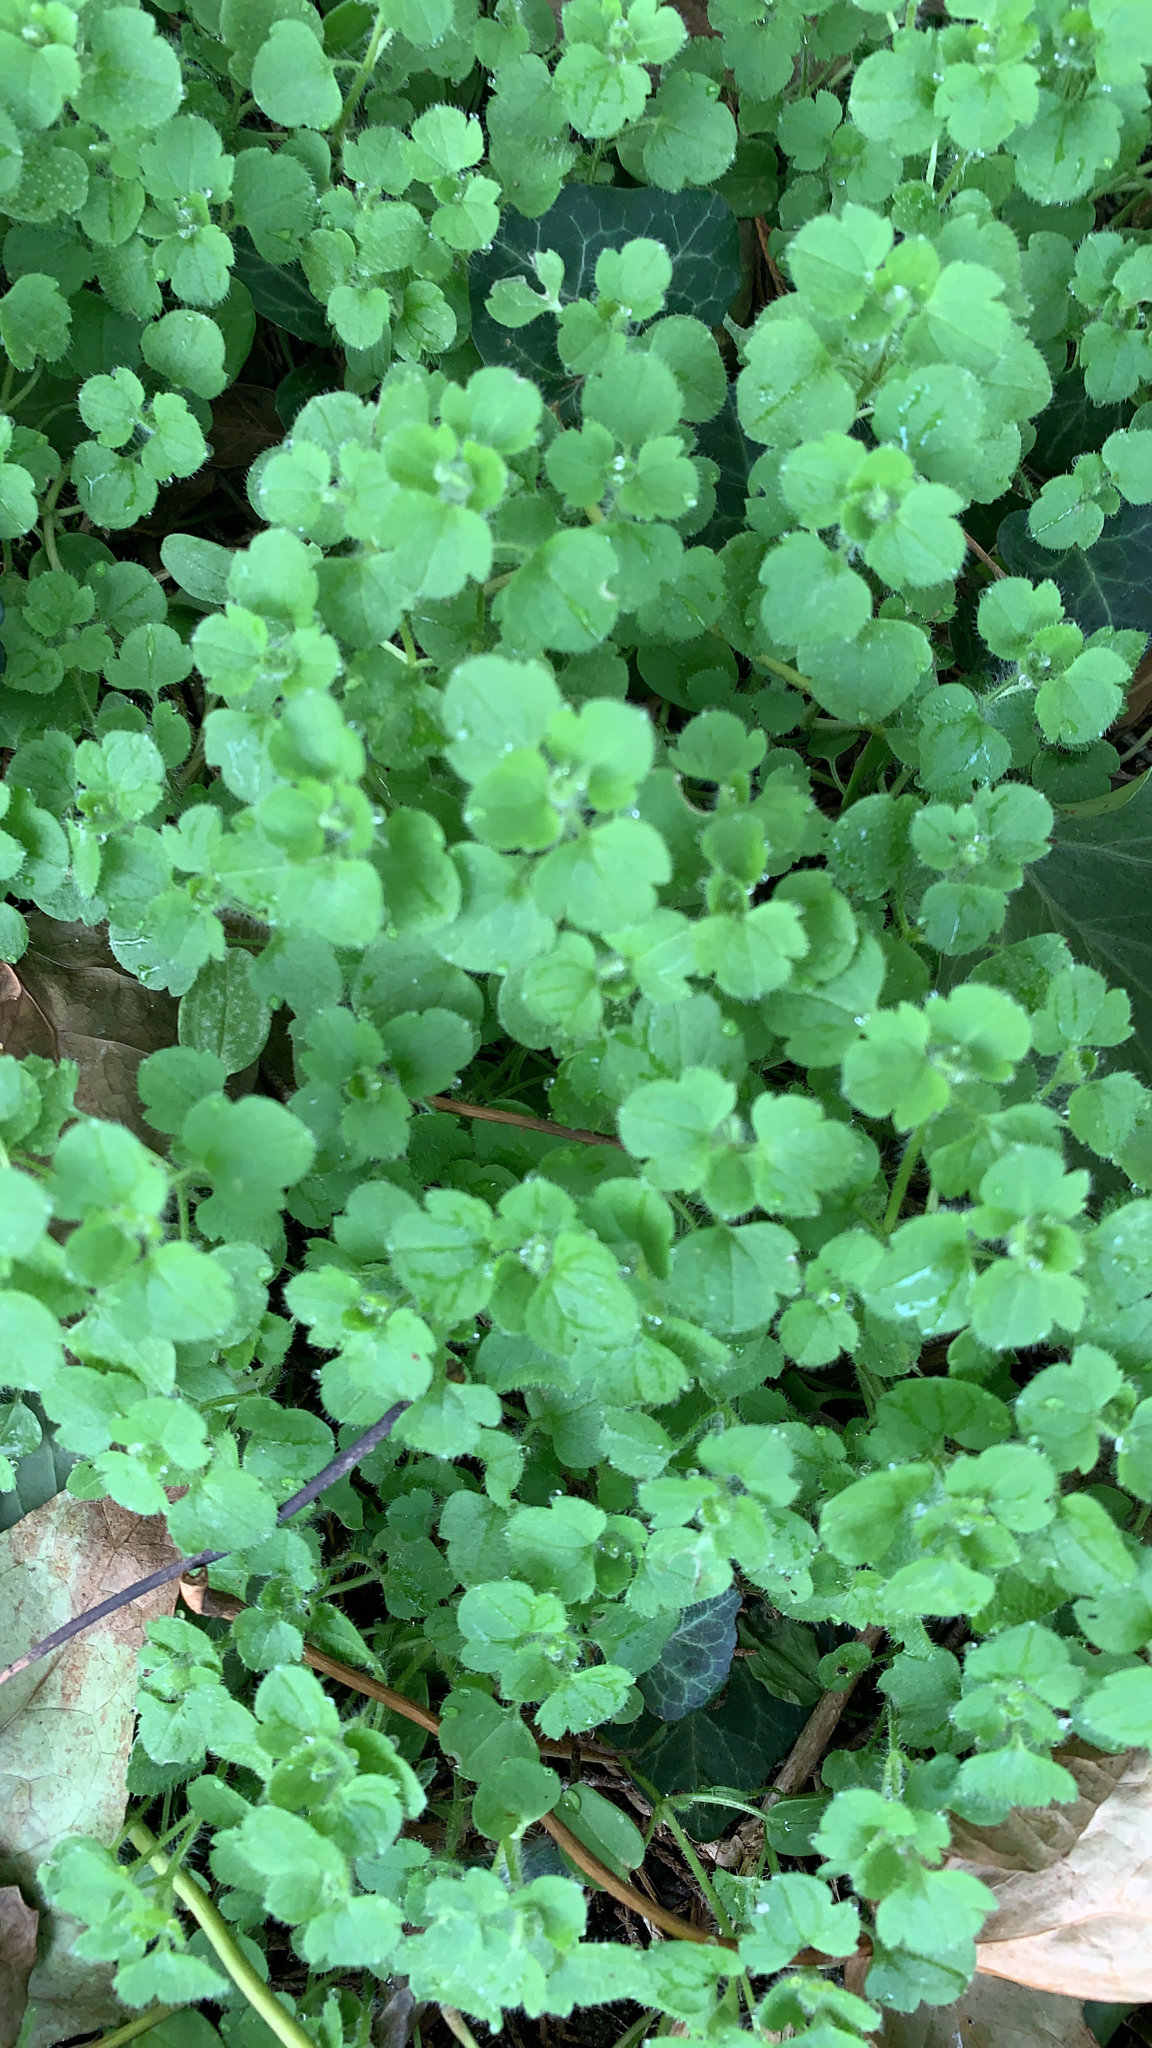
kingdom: Plantae
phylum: Tracheophyta
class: Magnoliopsida
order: Lamiales
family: Plantaginaceae
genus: Veronica
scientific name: Veronica hederifolia
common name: Ivy-leaved speedwell
